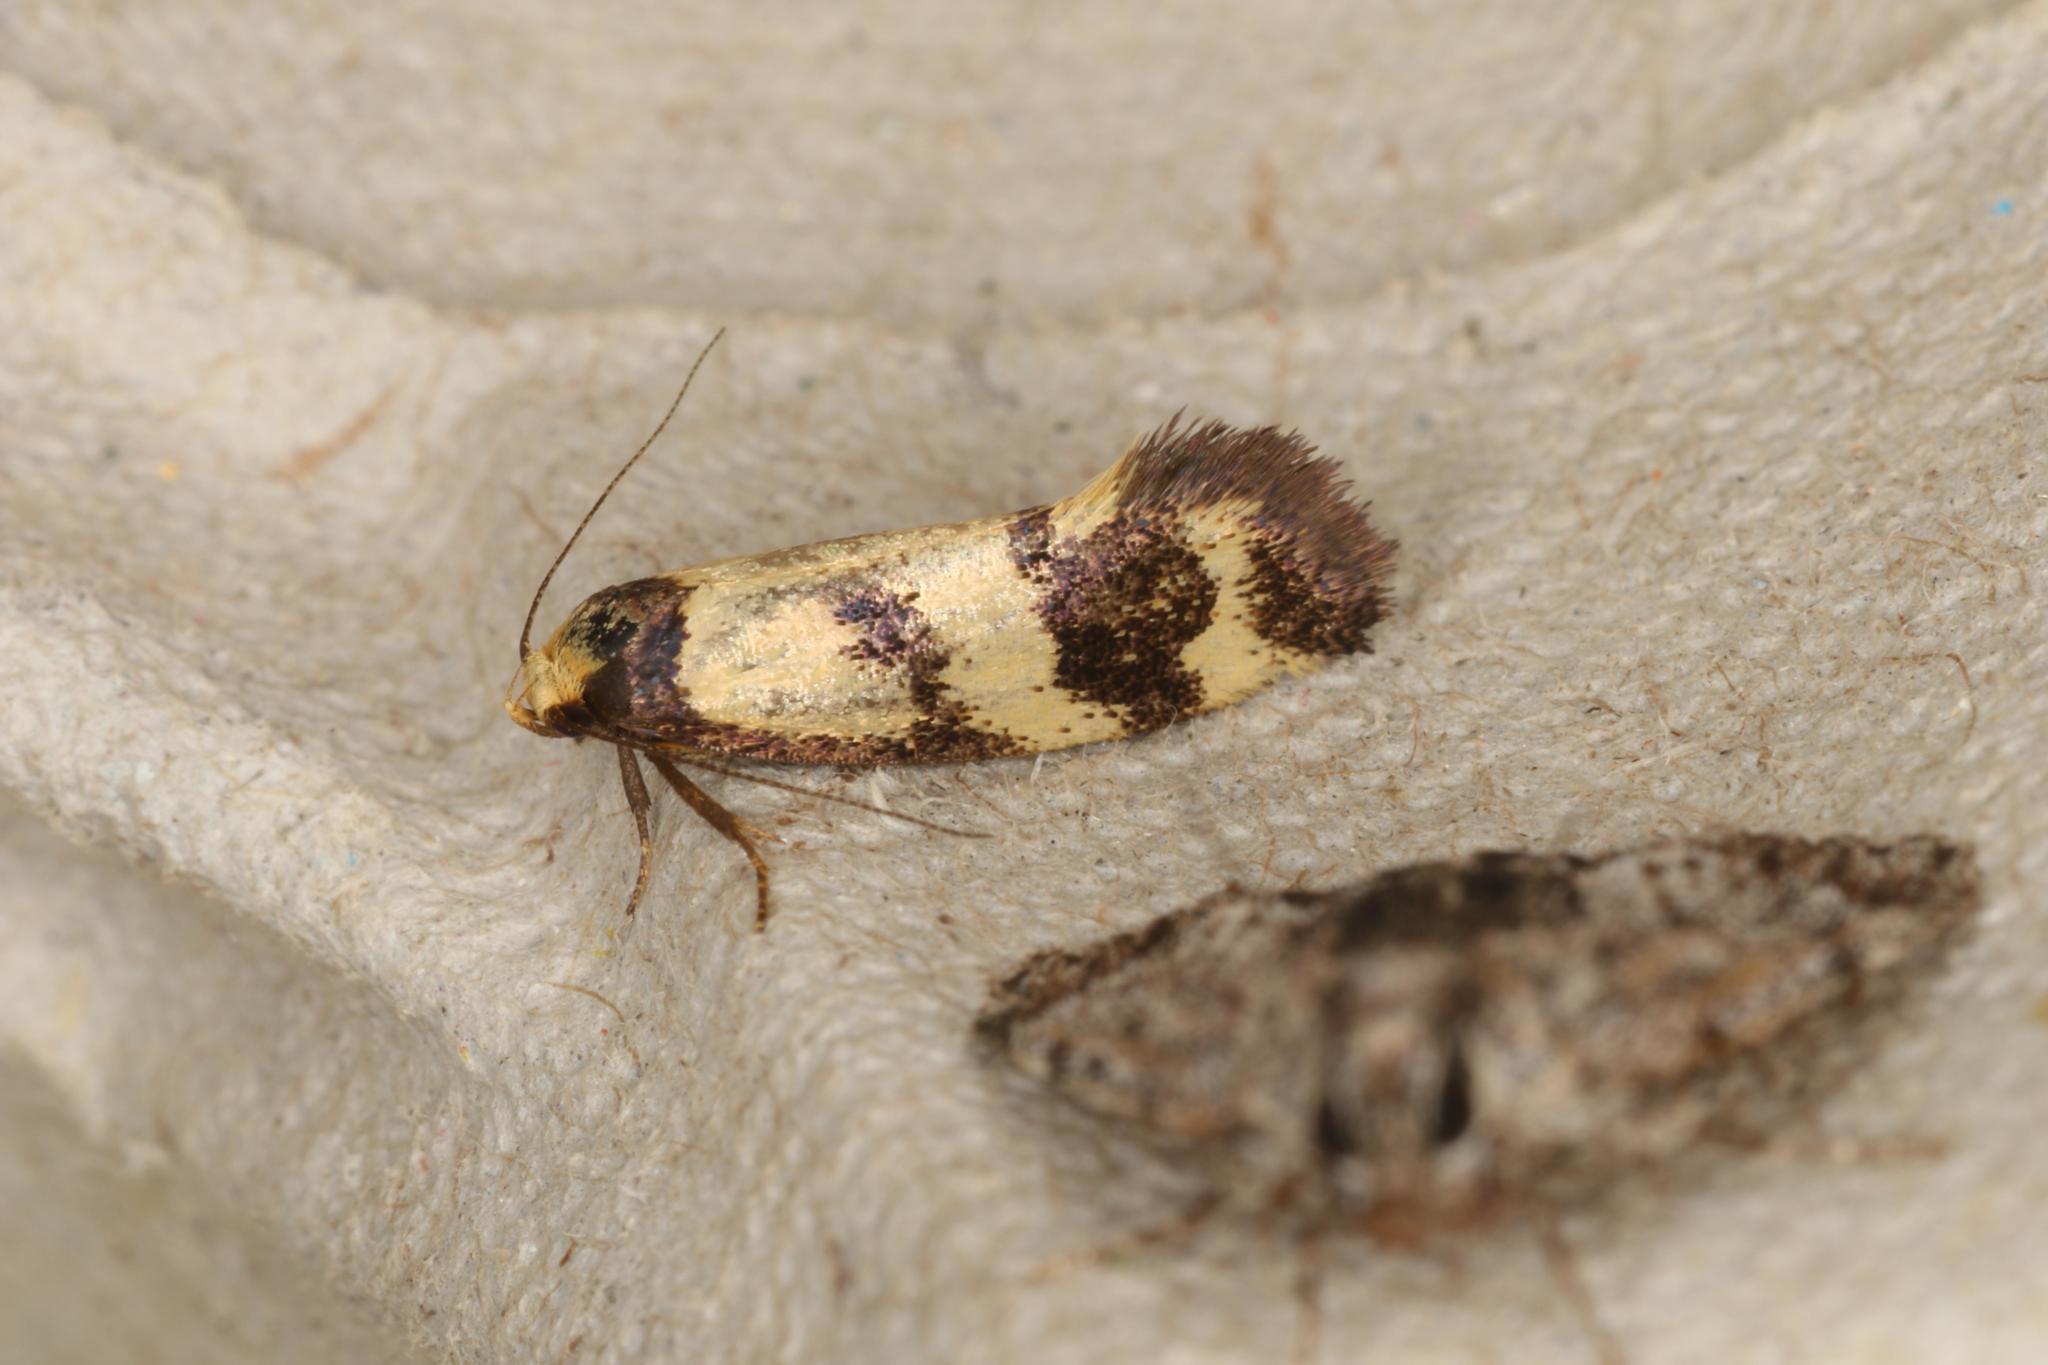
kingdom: Animalia
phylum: Arthropoda
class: Insecta
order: Lepidoptera
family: Oecophoridae
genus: Olbonoma
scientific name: Olbonoma triptycha
